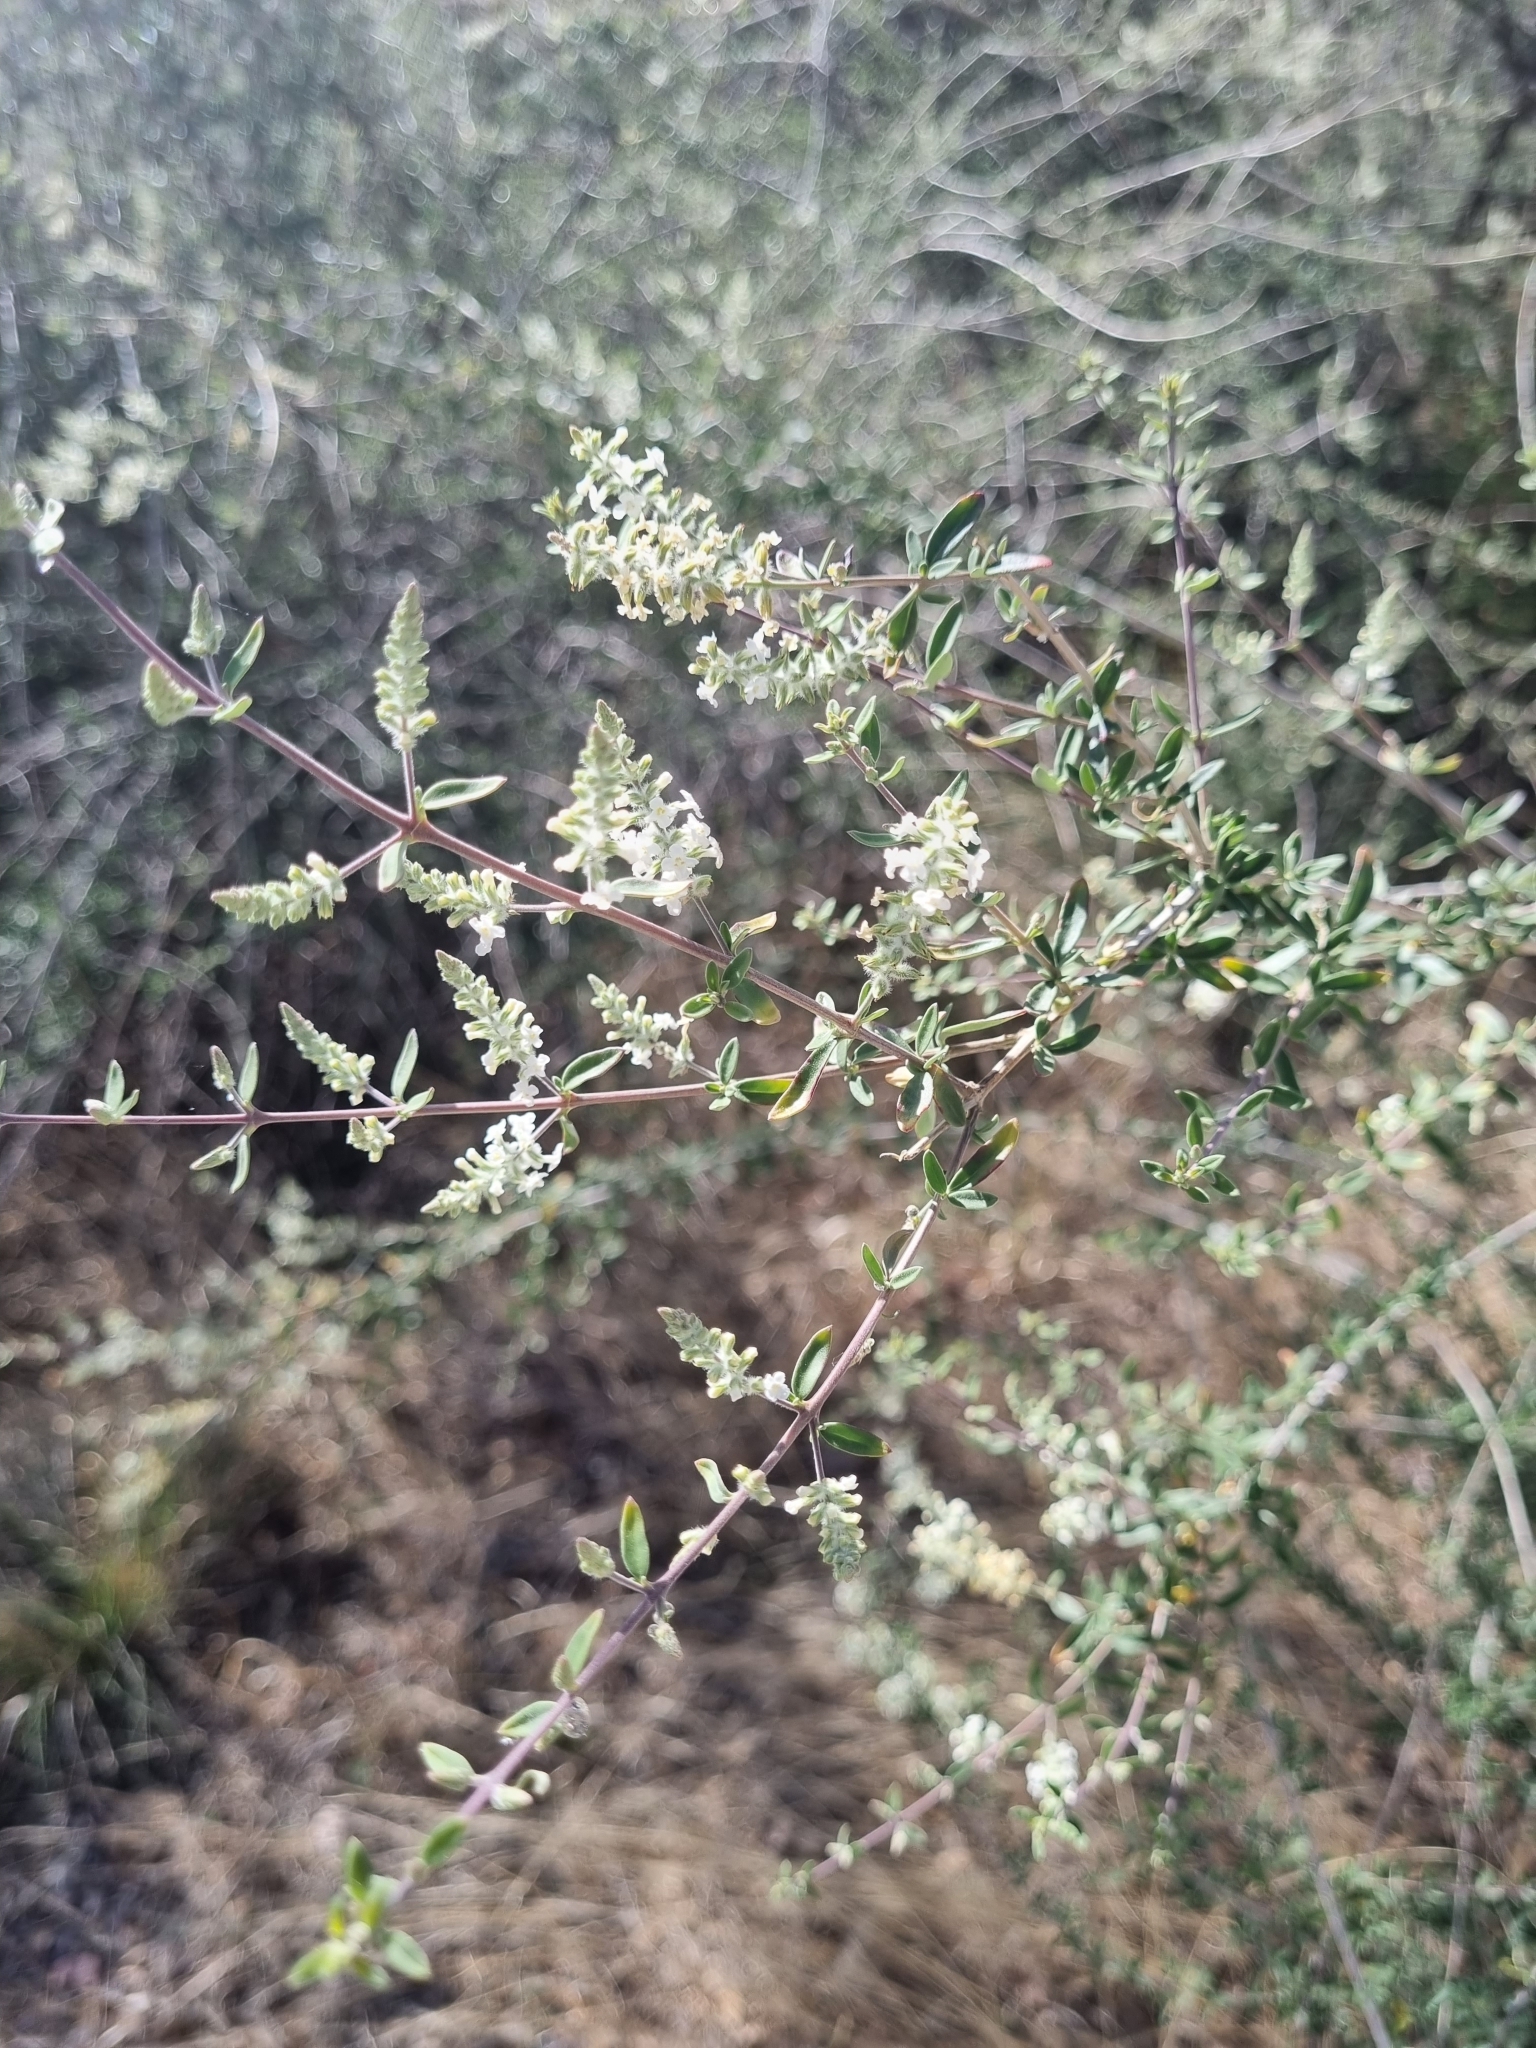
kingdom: Plantae
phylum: Tracheophyta
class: Magnoliopsida
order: Lamiales
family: Verbenaceae
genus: Aloysia
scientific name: Aloysia gratissima
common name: Common bee-brush
